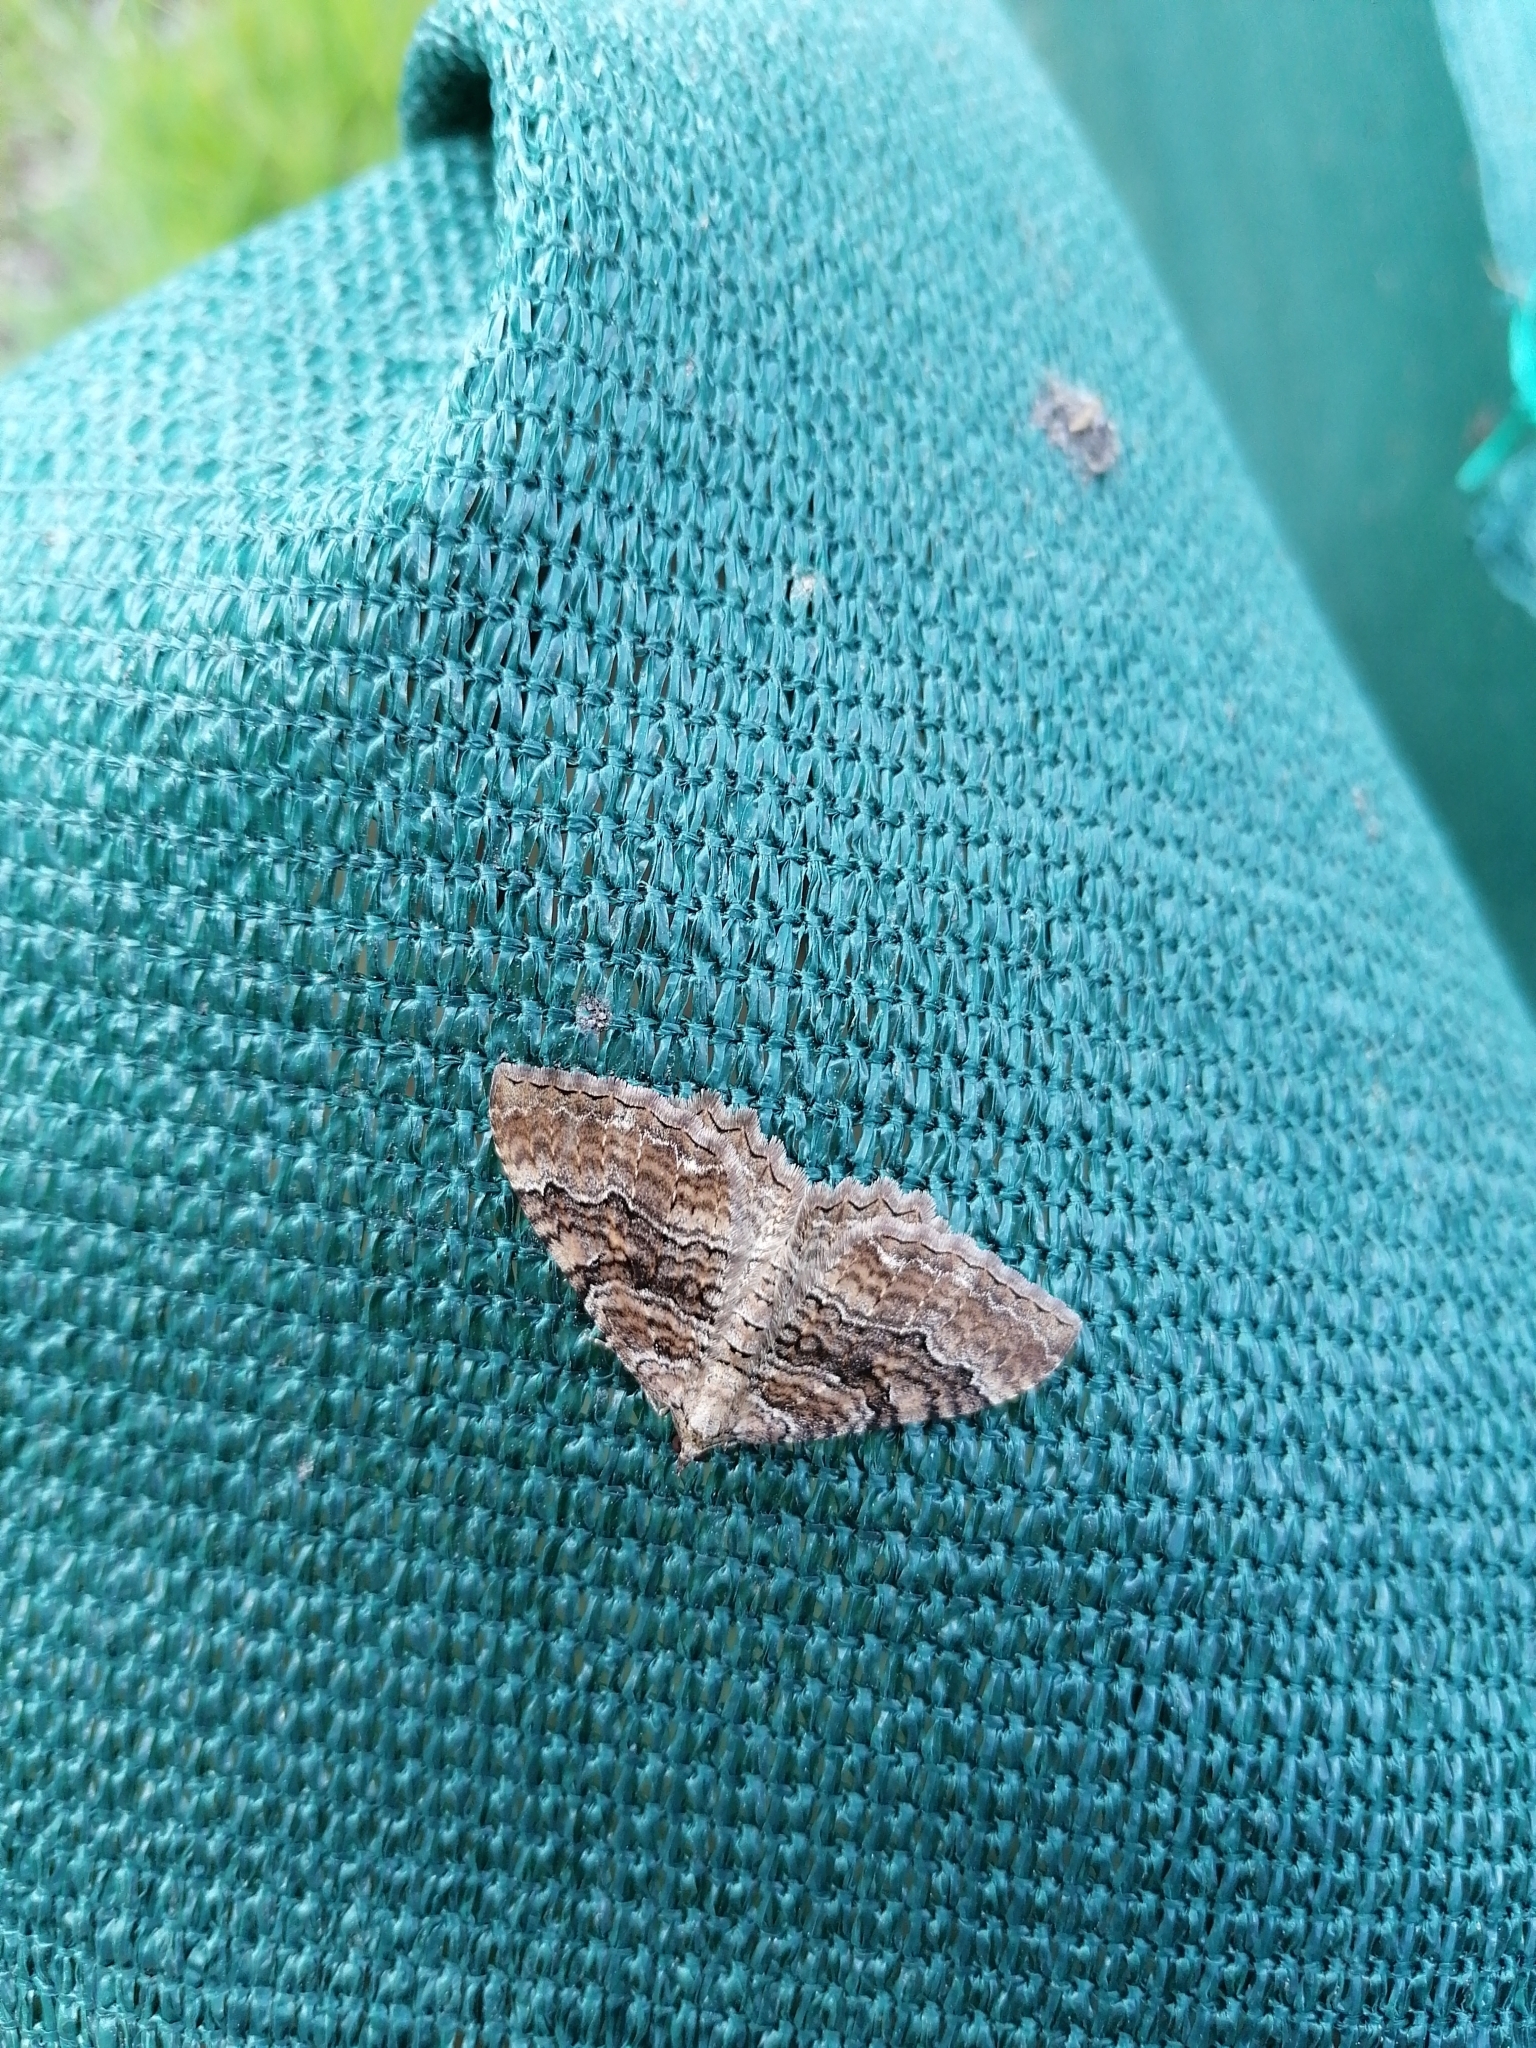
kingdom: Animalia
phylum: Arthropoda
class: Insecta
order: Lepidoptera
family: Geometridae
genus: Rheumaptera
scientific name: Rheumaptera Hydria cervinalis
